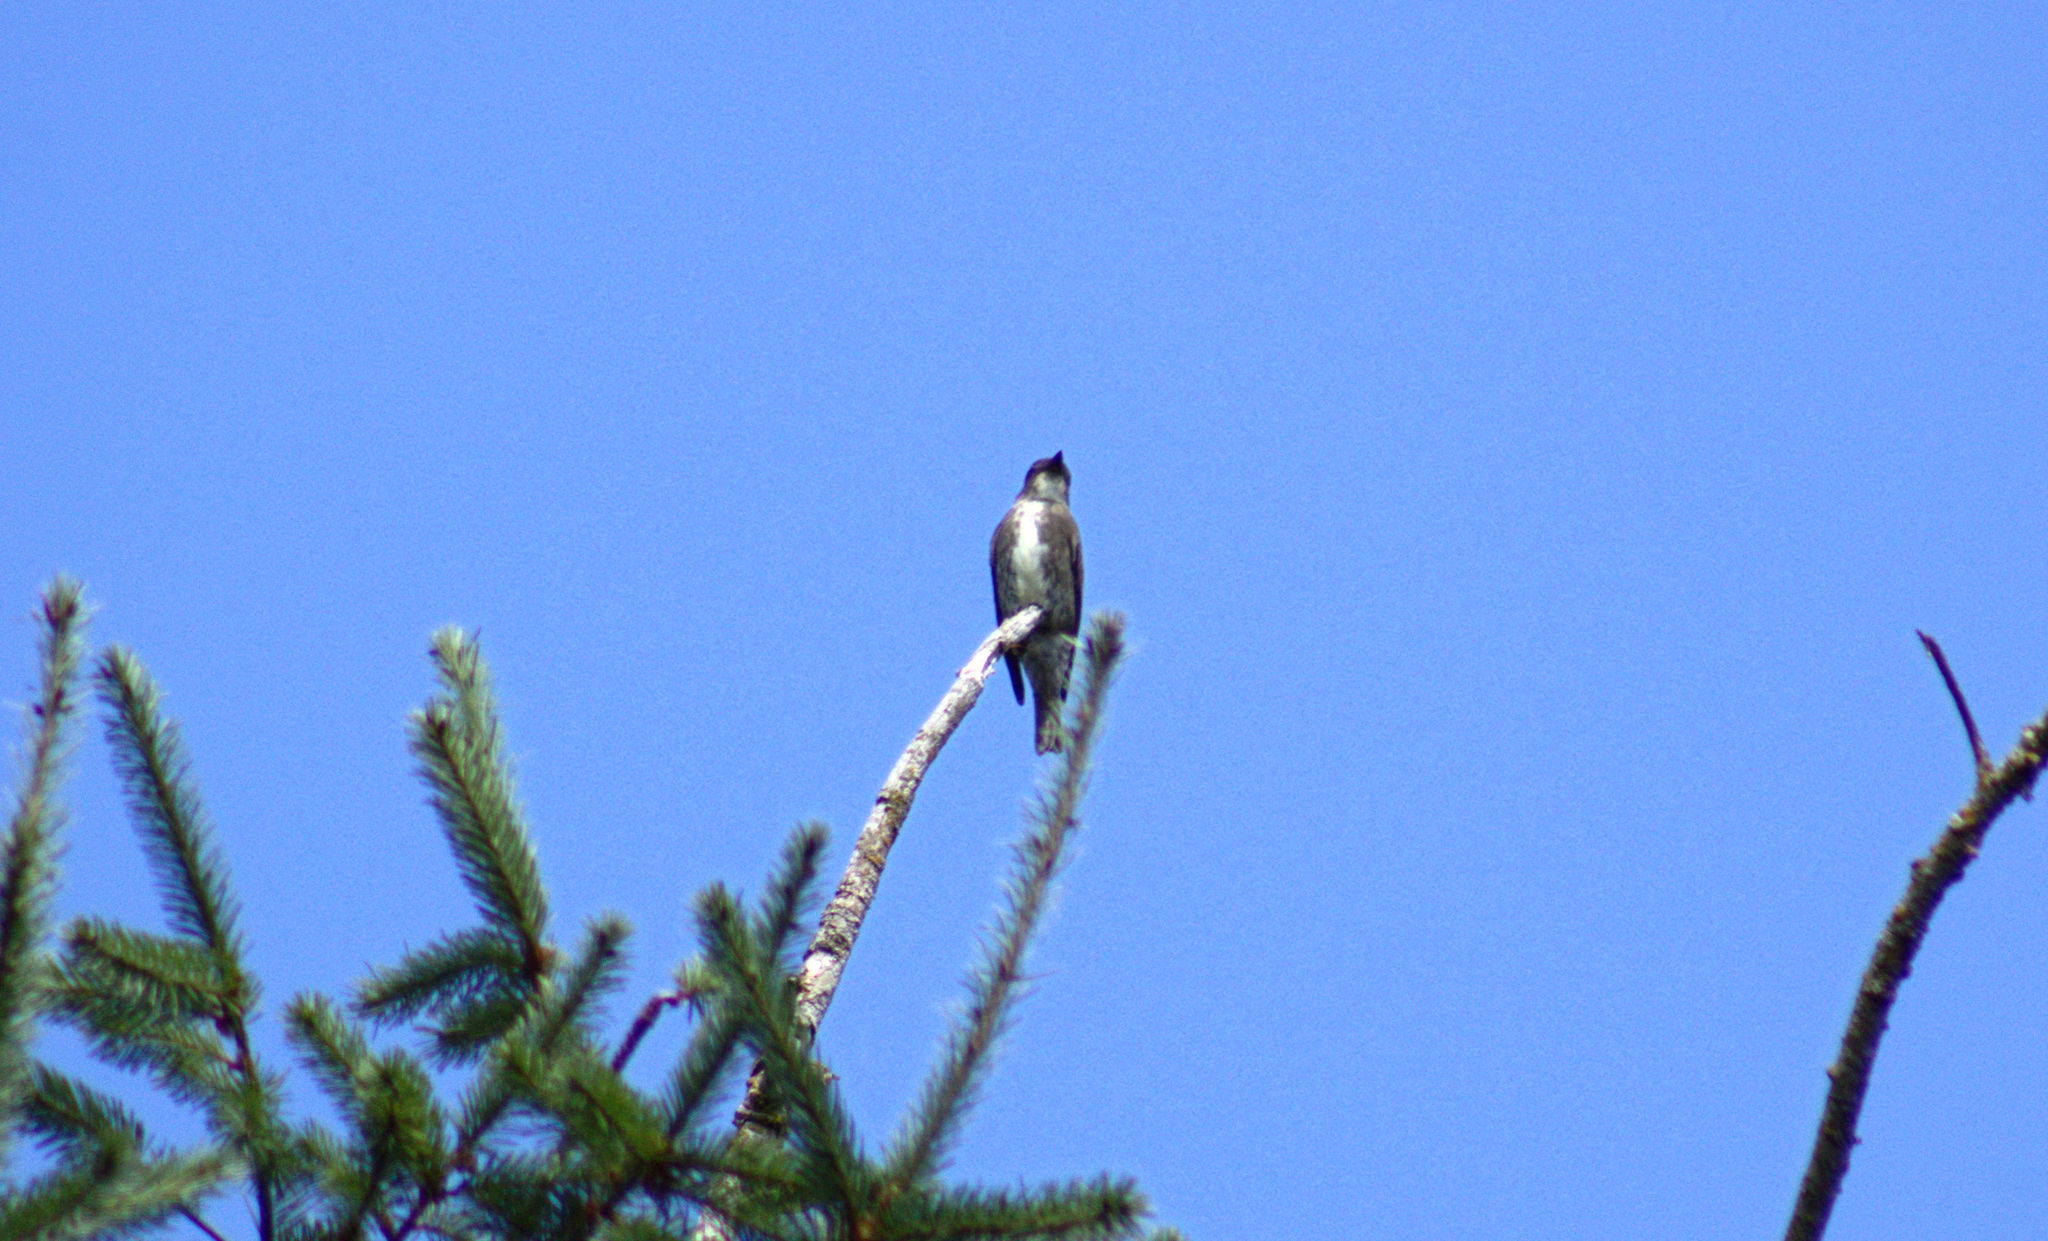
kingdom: Animalia
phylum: Chordata
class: Aves
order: Passeriformes
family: Tyrannidae
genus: Contopus
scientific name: Contopus cooperi
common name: Olive-sided flycatcher
